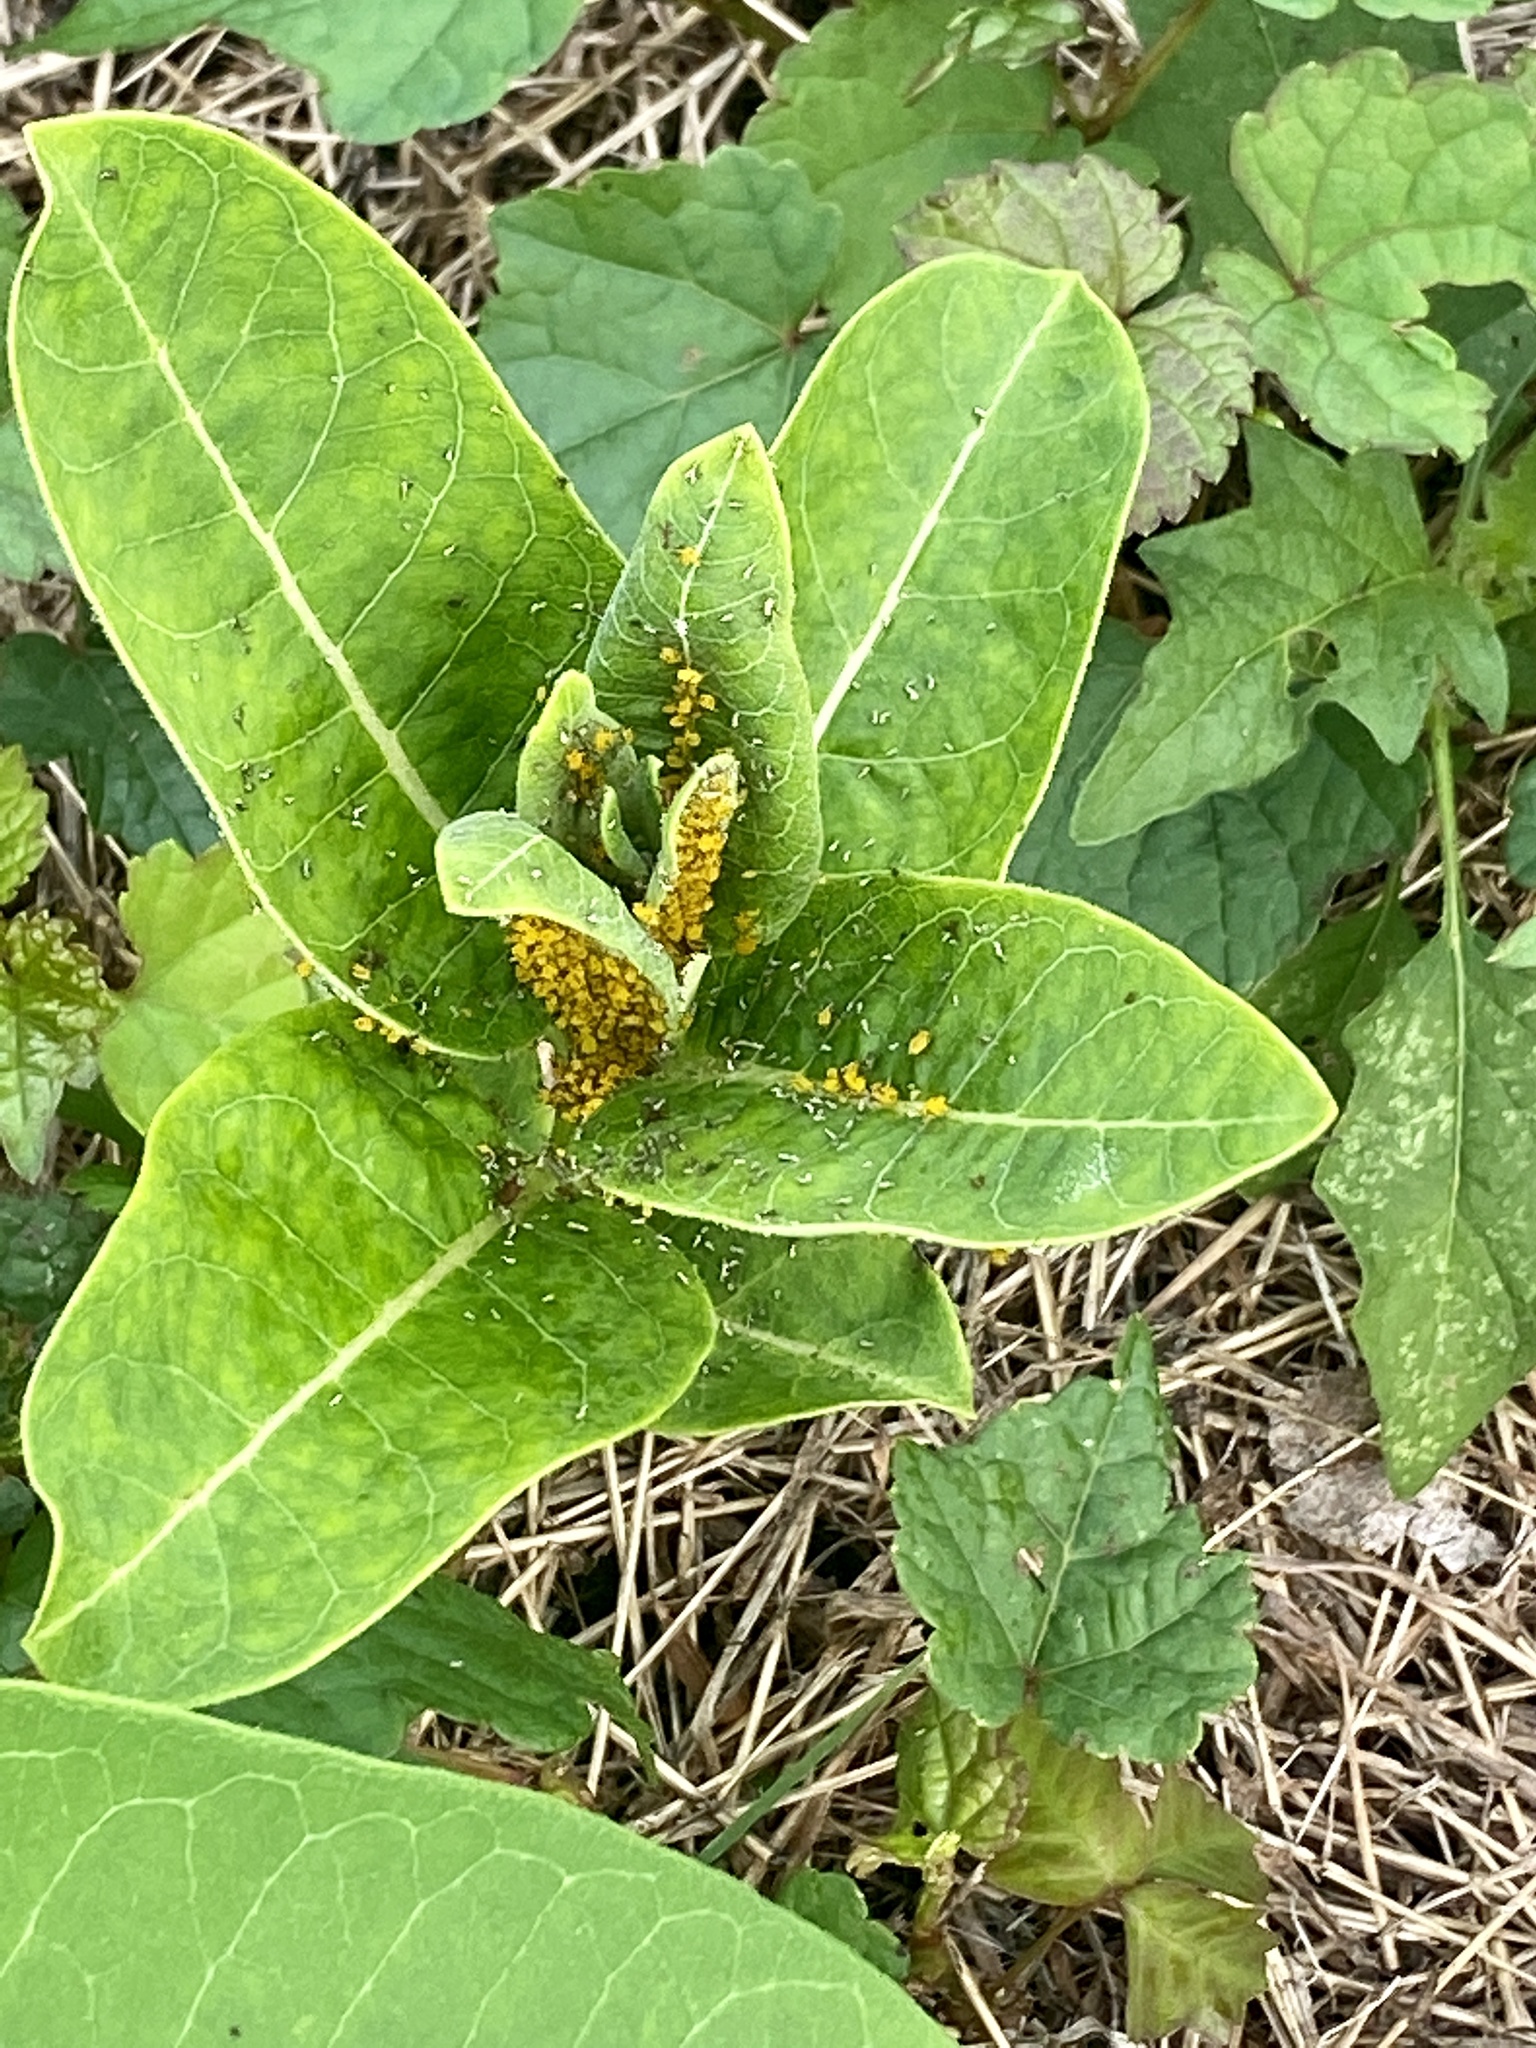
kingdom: Animalia
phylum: Arthropoda
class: Insecta
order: Hemiptera
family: Aphididae
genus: Aphis
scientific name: Aphis nerii
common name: Oleander aphid
